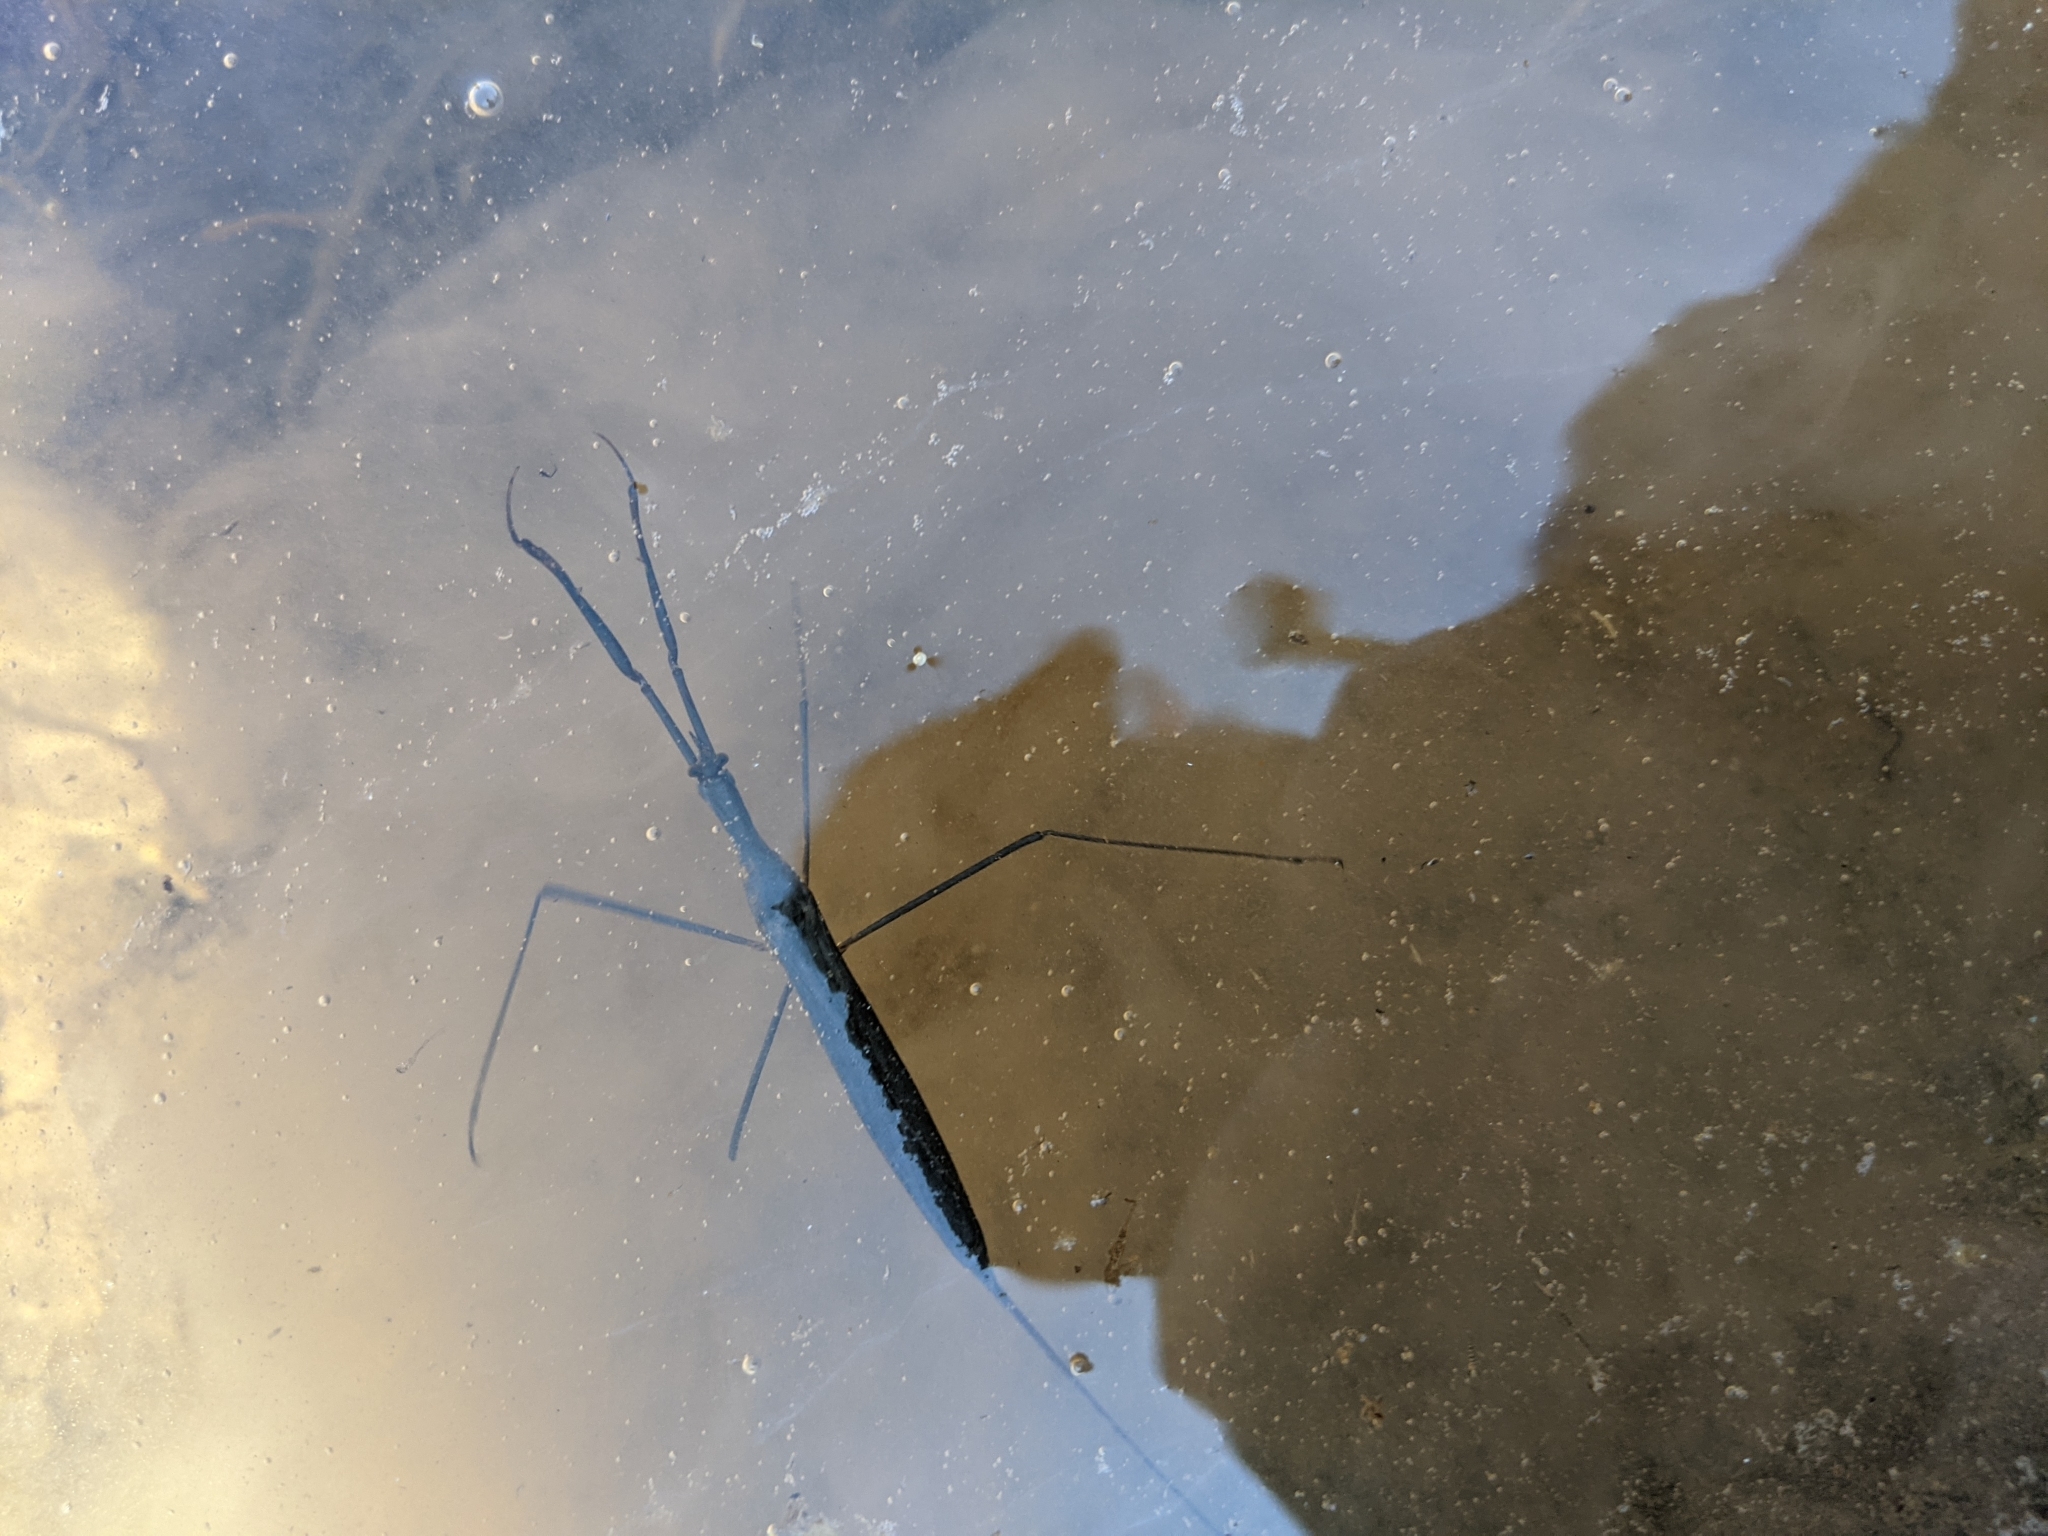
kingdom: Animalia
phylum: Arthropoda
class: Insecta
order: Hemiptera
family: Nepidae
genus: Ranatra
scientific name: Ranatra fusca
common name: Brown waterscorpion
